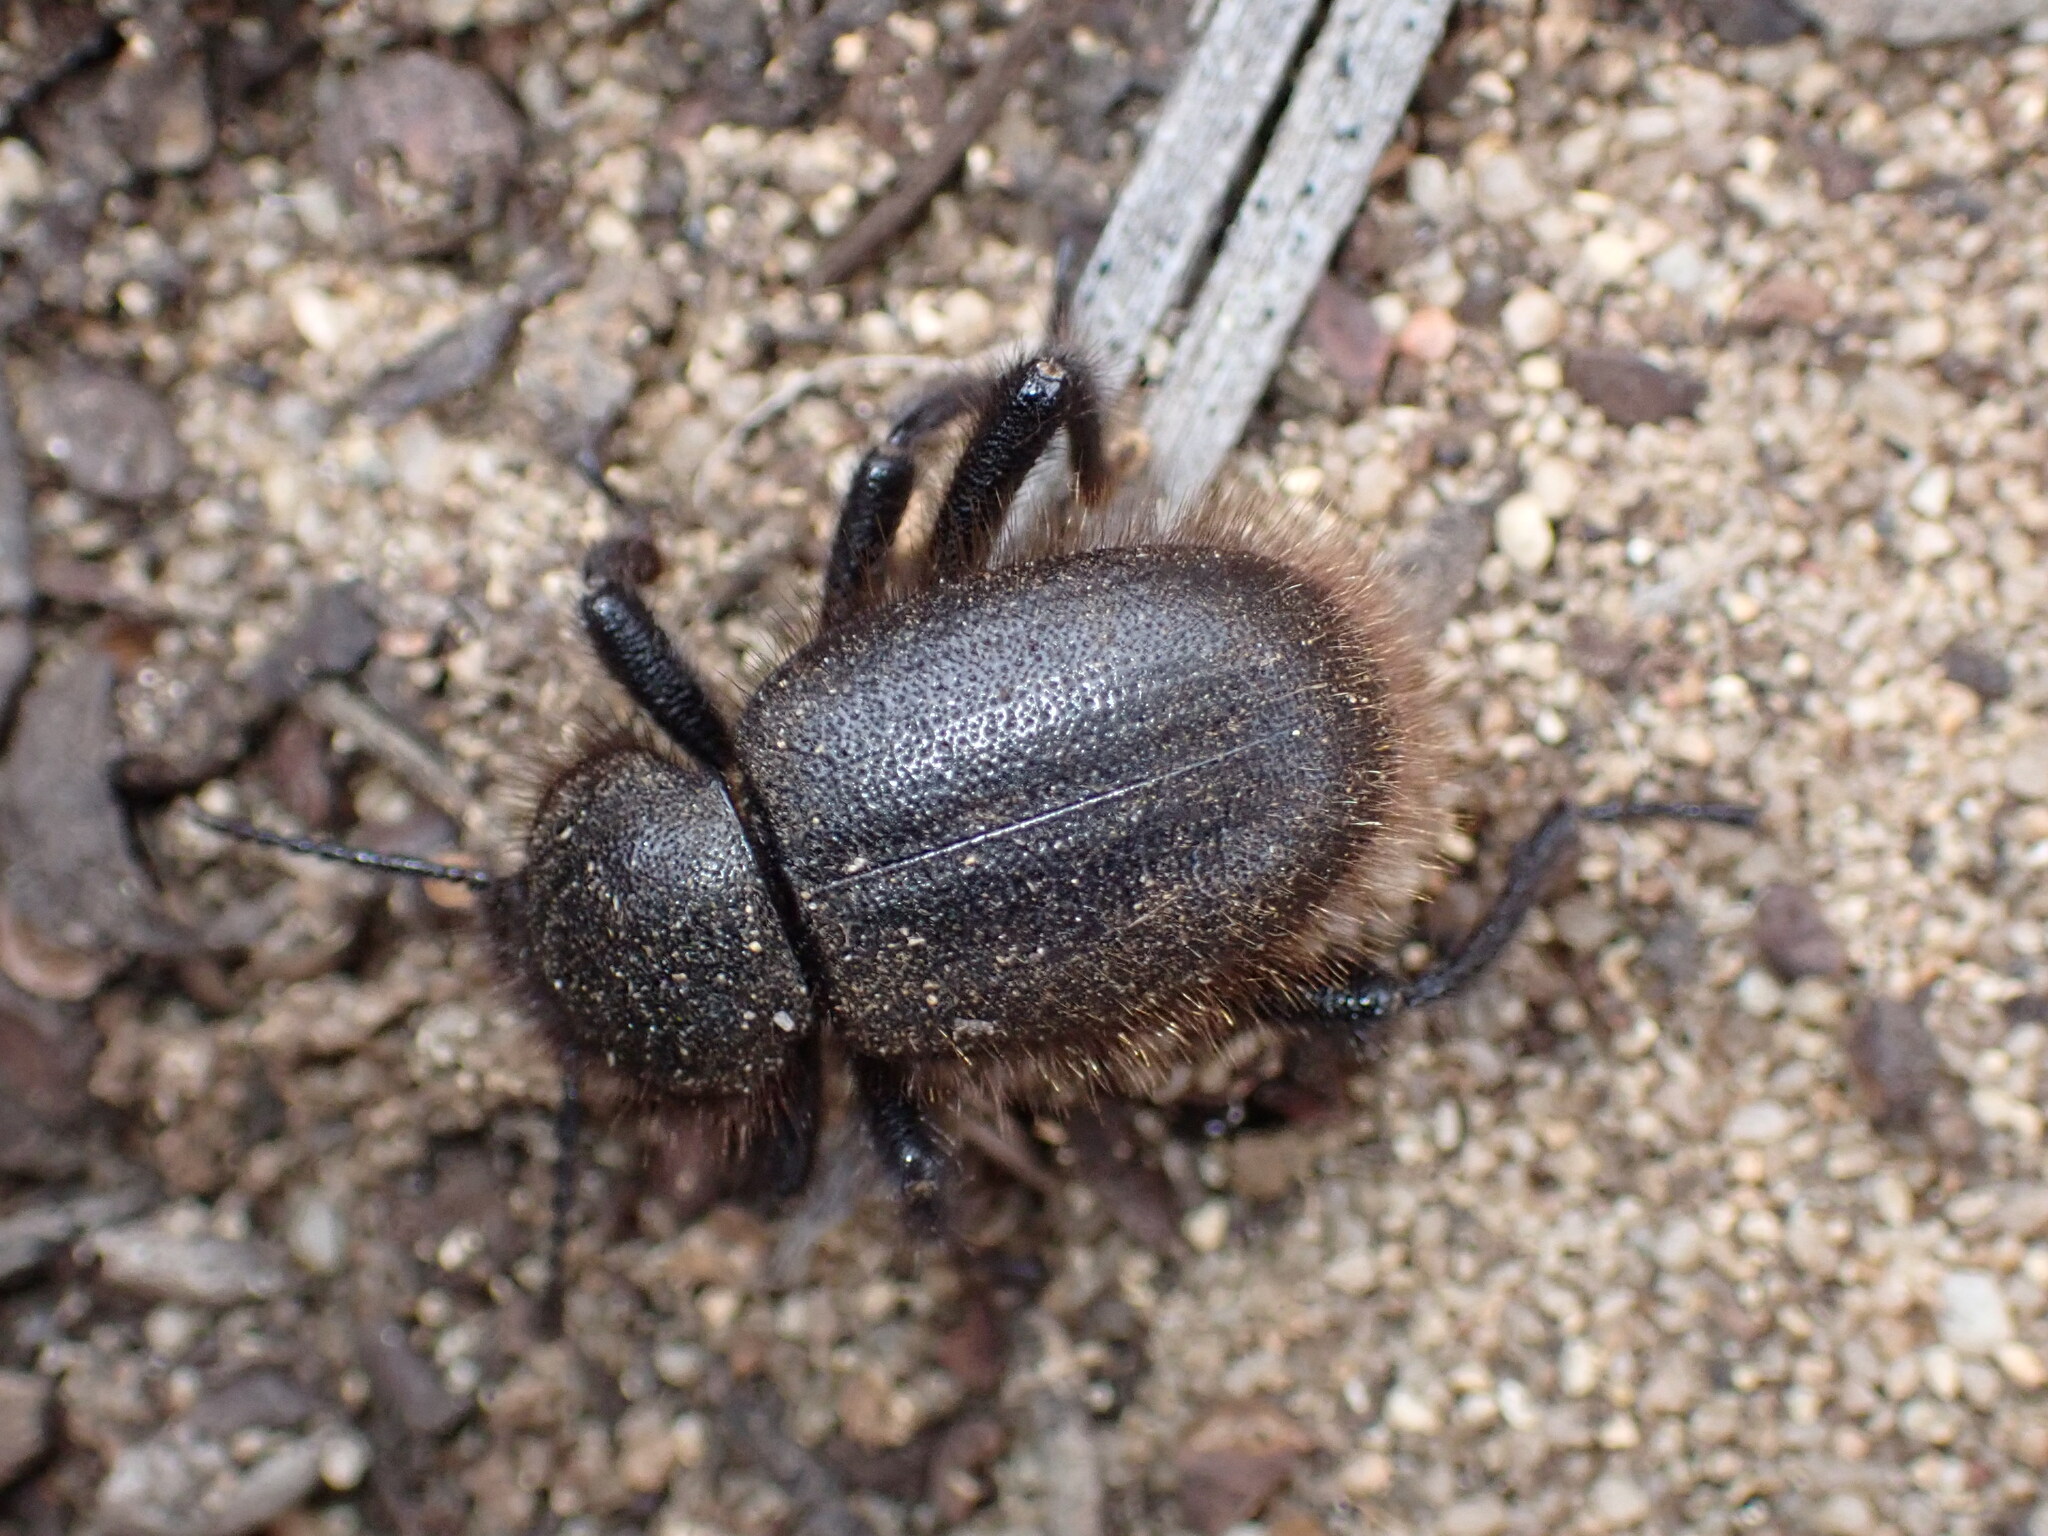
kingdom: Animalia
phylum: Arthropoda
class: Insecta
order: Coleoptera
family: Tenebrionidae
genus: Eleodes
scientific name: Eleodes osculans
